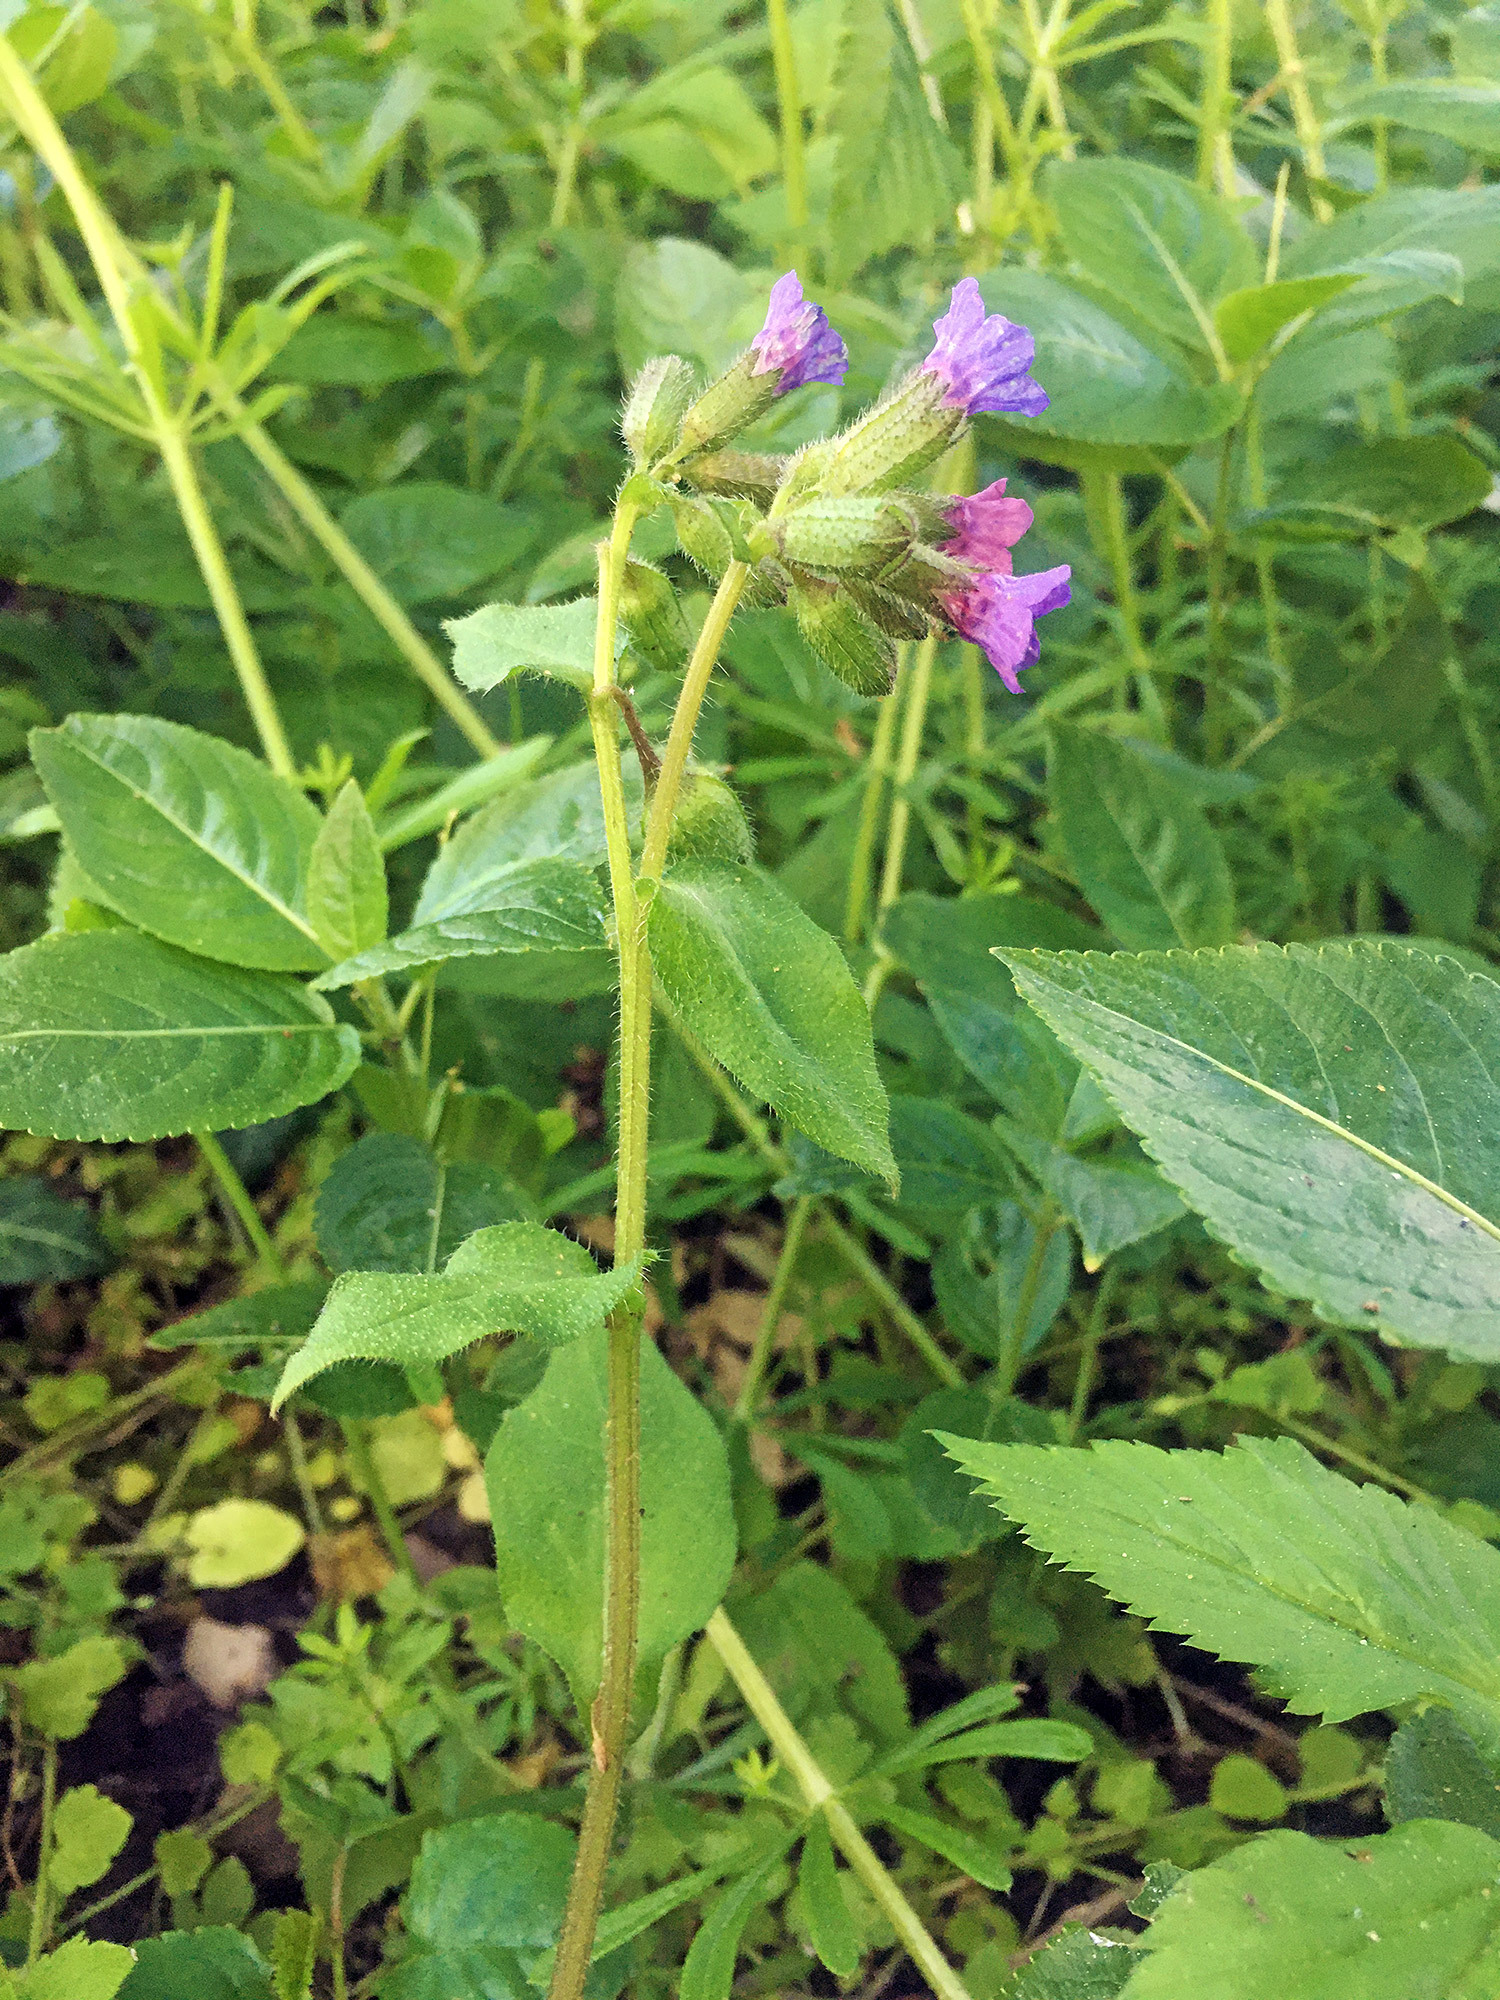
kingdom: Plantae
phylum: Tracheophyta
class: Magnoliopsida
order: Boraginales
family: Boraginaceae
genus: Pulmonaria
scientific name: Pulmonaria obscura
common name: Suffolk lungwort
